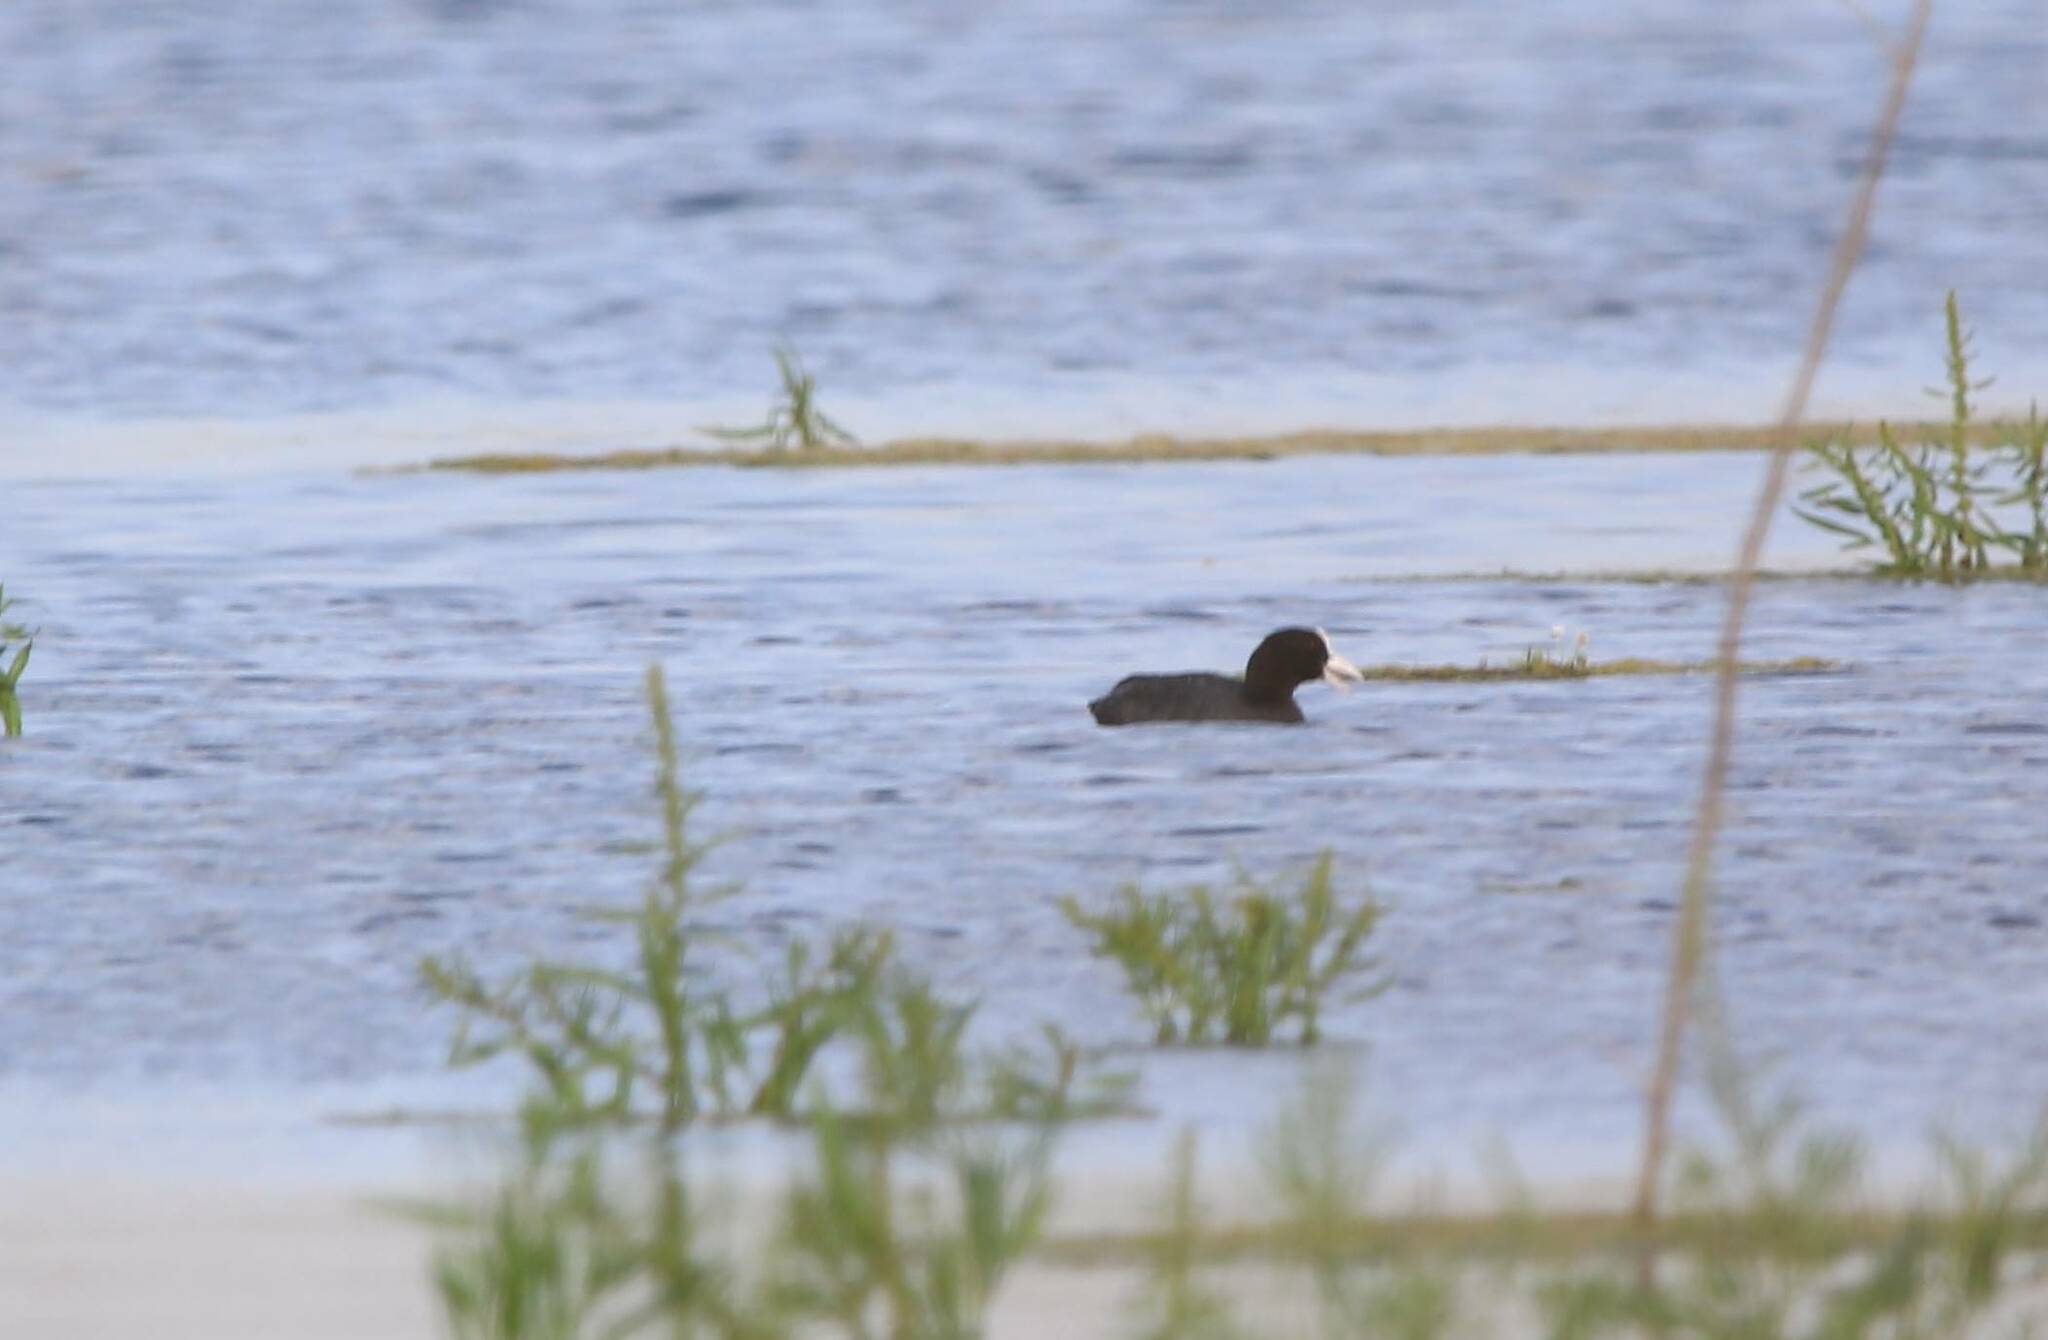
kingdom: Animalia
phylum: Chordata
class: Aves
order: Gruiformes
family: Rallidae
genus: Fulica
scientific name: Fulica atra
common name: Eurasian coot
